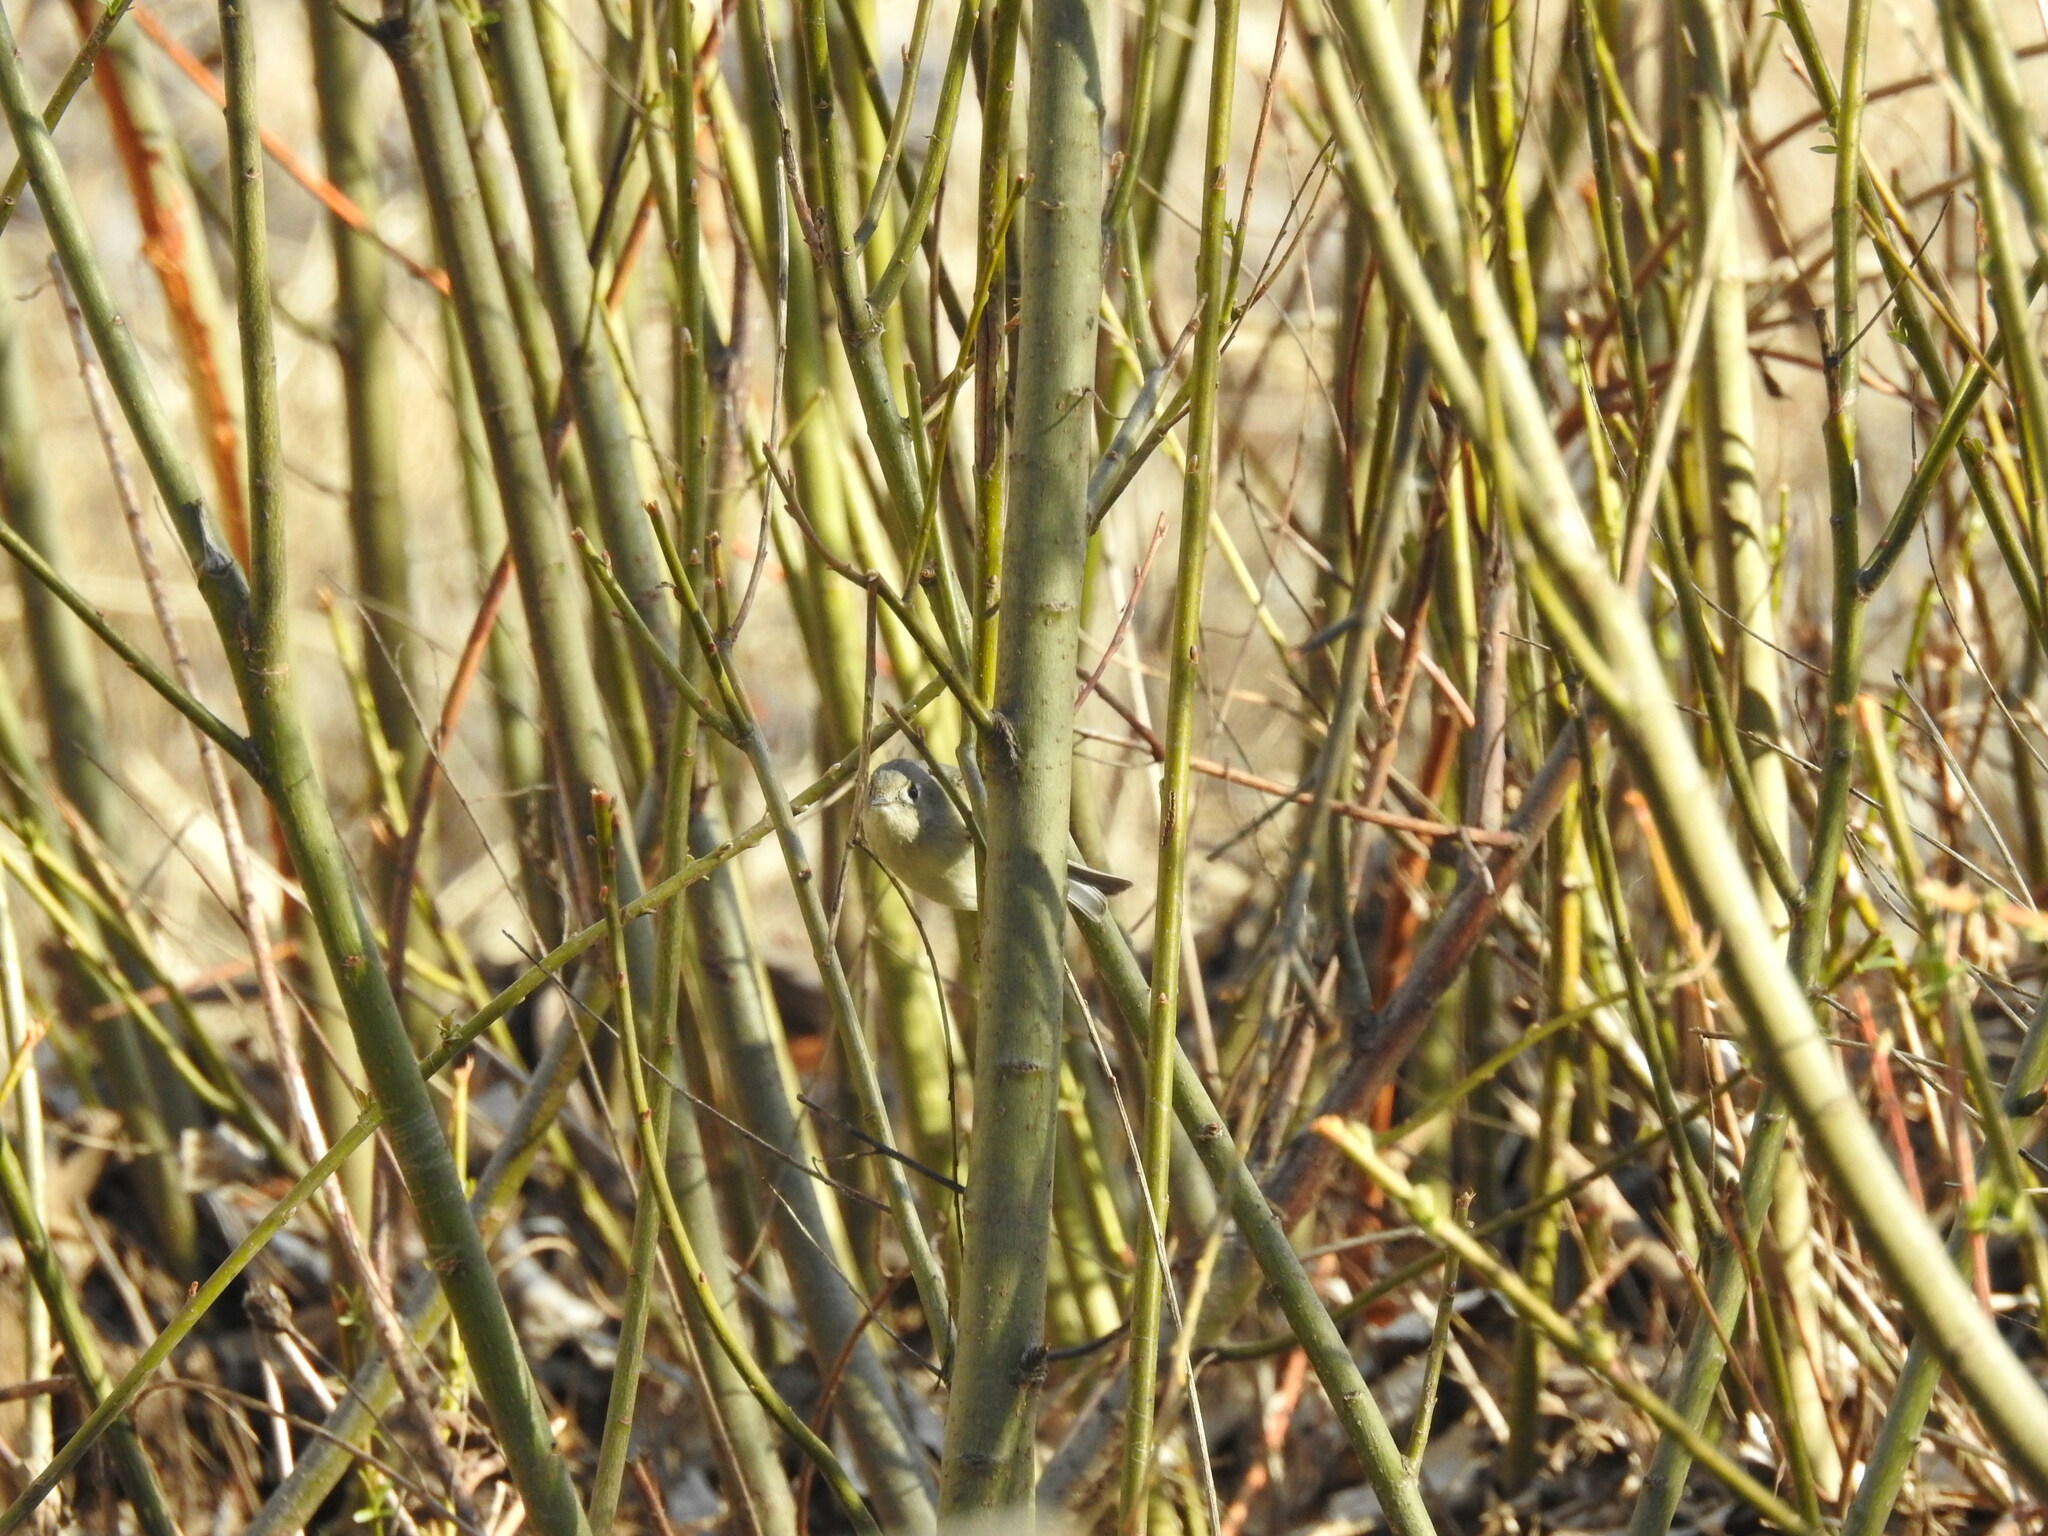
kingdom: Animalia
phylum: Chordata
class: Aves
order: Passeriformes
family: Regulidae
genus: Regulus
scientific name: Regulus calendula
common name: Ruby-crowned kinglet
